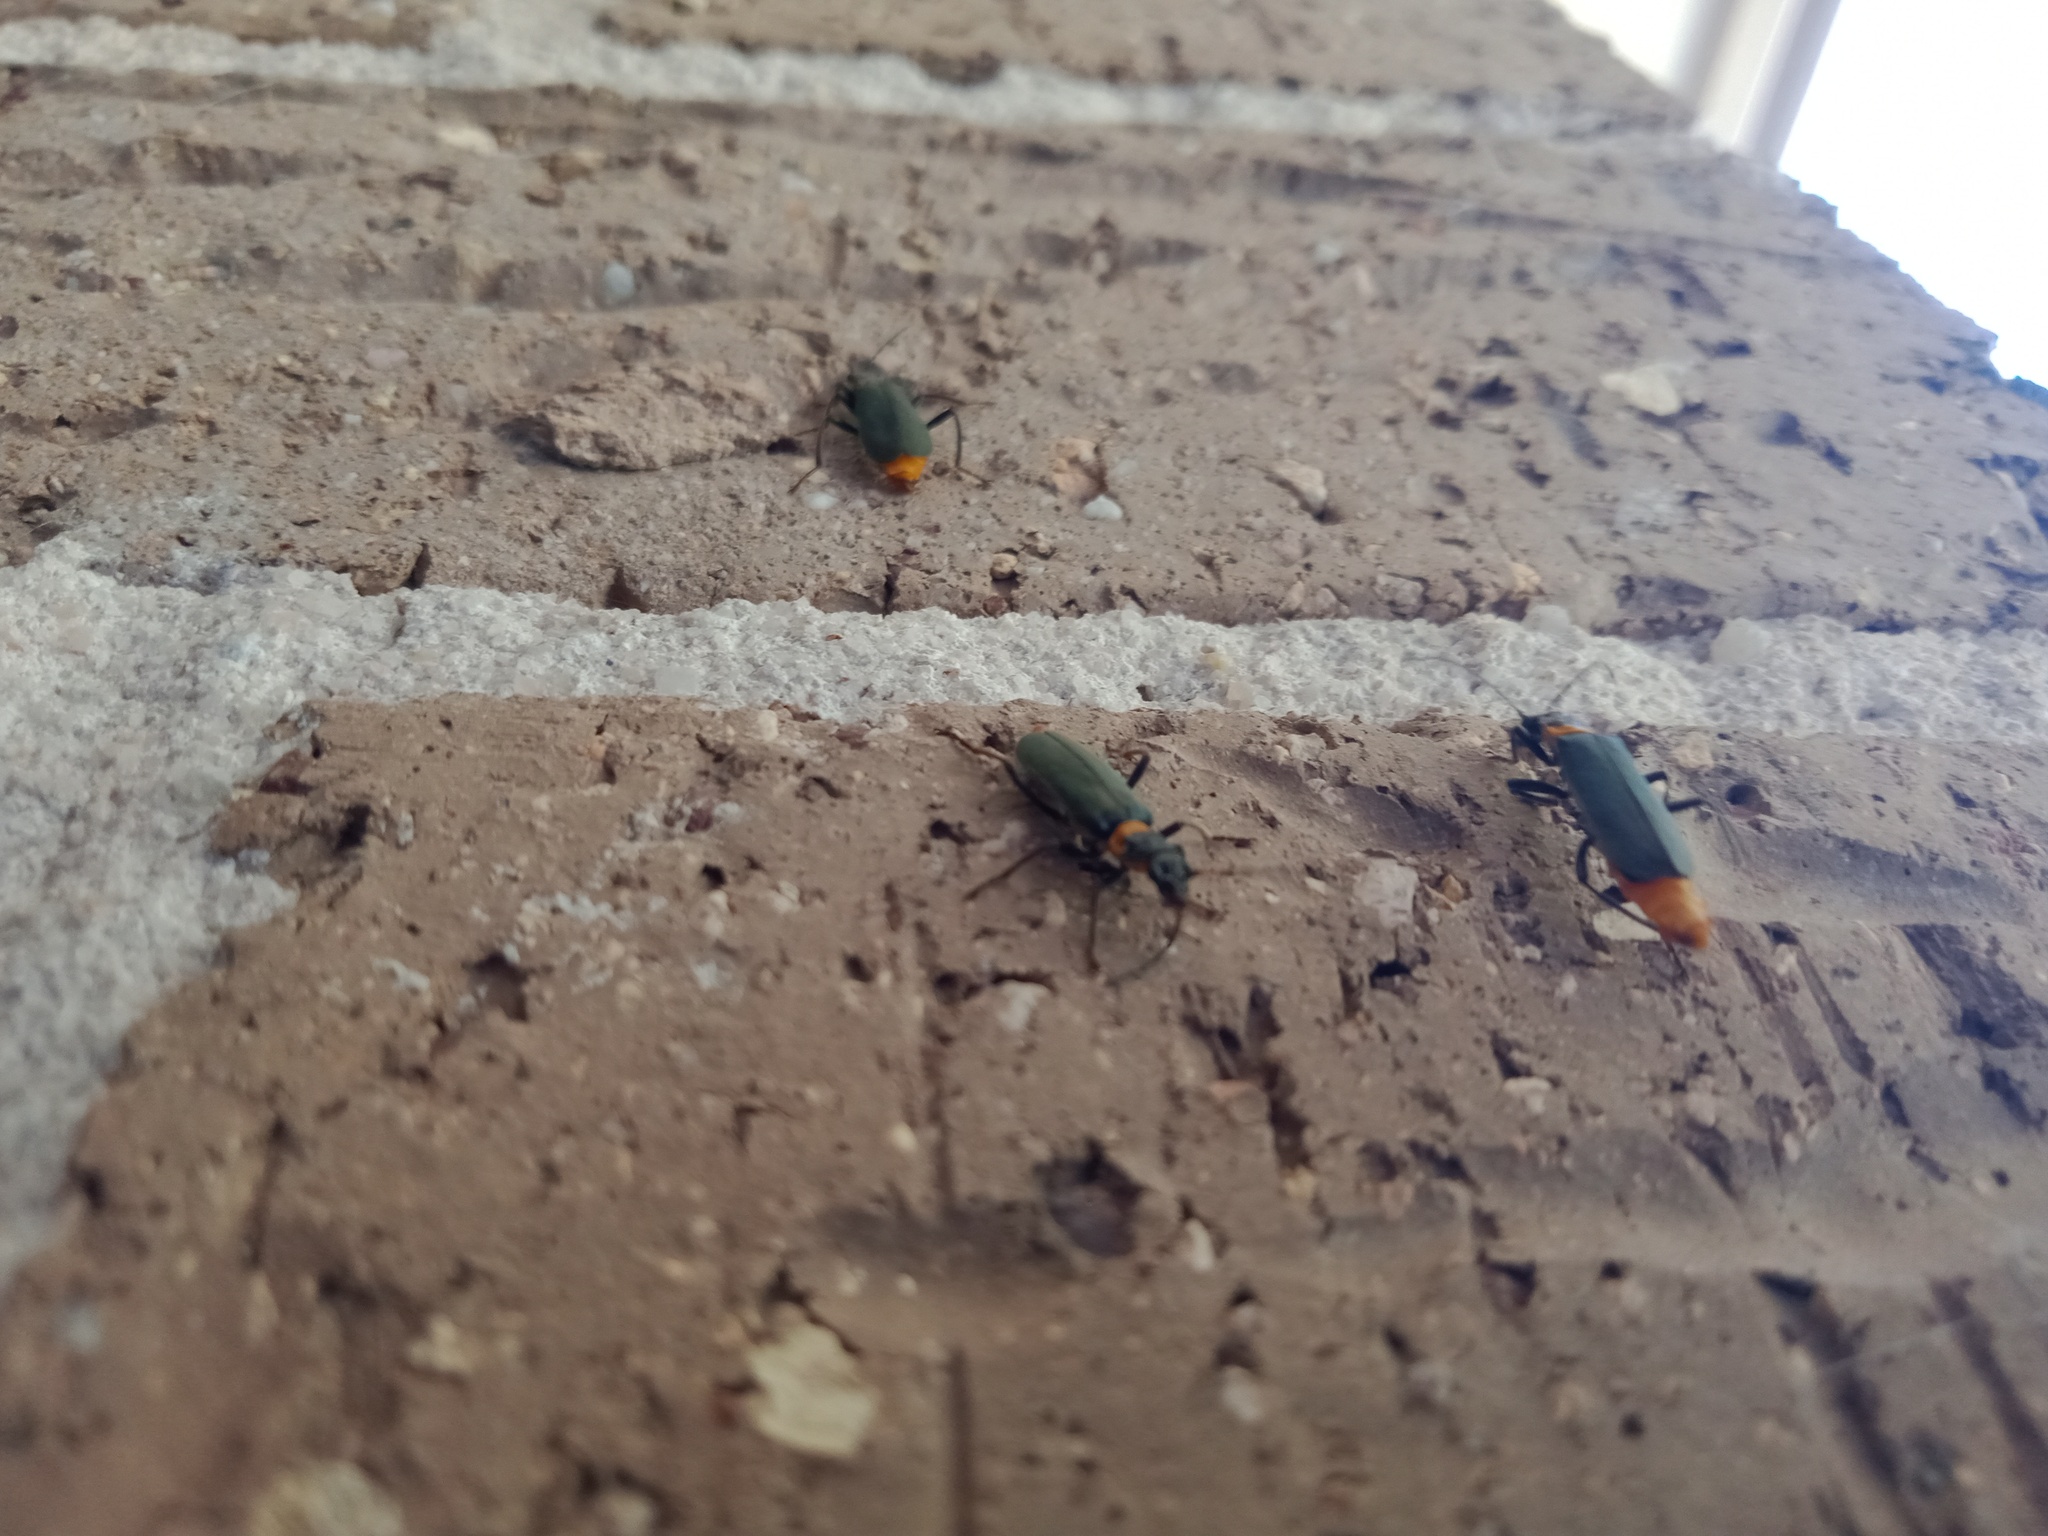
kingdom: Animalia
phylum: Arthropoda
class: Insecta
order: Coleoptera
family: Cantharidae
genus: Chauliognathus
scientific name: Chauliognathus
